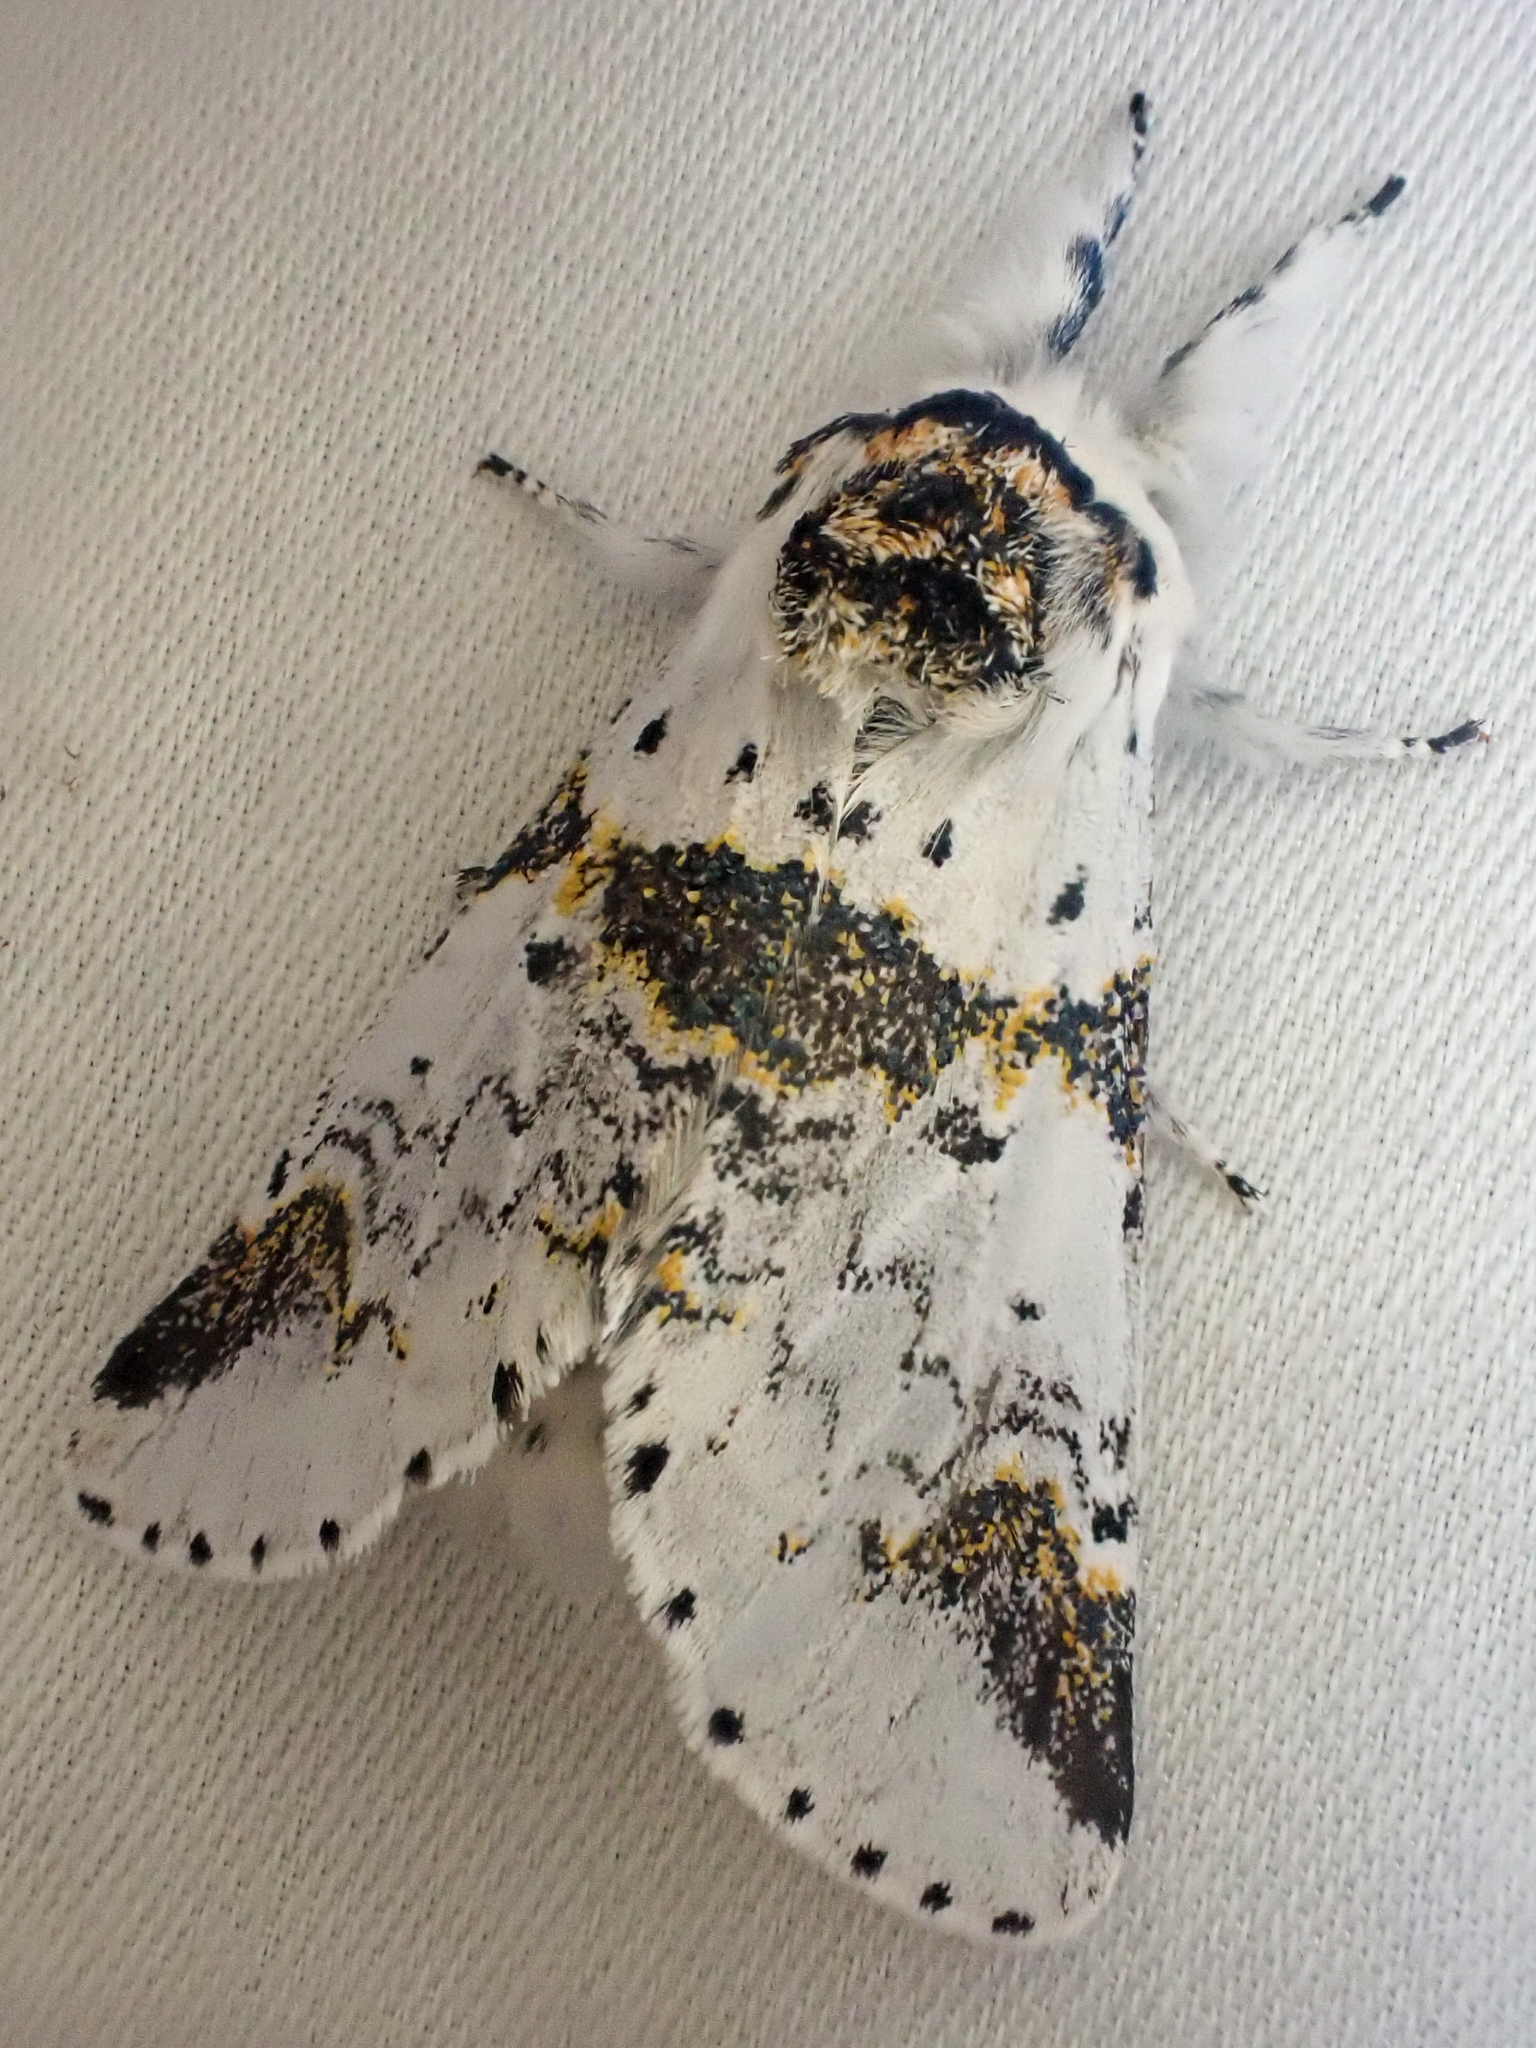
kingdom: Animalia
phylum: Arthropoda
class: Insecta
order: Lepidoptera
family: Notodontidae
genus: Furcula
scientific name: Furcula scolopendrina
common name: Zigzag furcula moth
